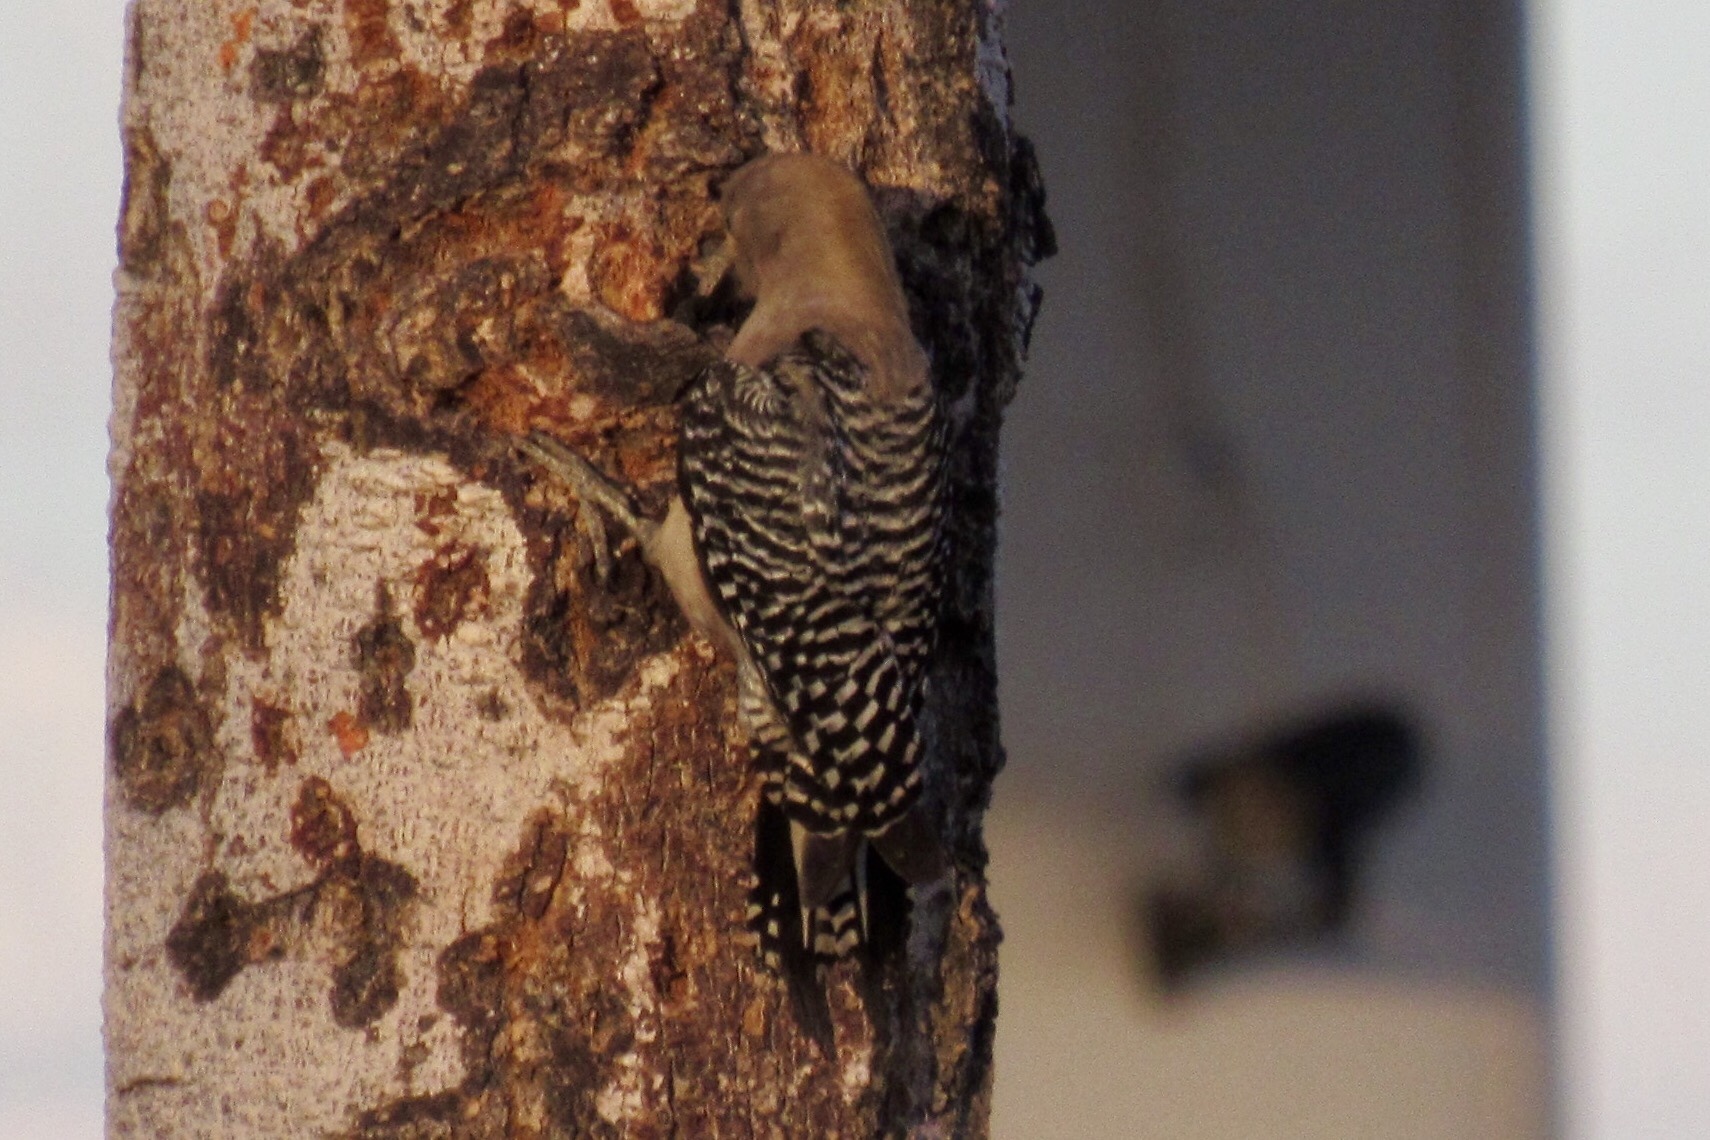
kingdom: Animalia
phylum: Chordata
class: Aves
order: Piciformes
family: Picidae
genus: Melanerpes
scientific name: Melanerpes uropygialis
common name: Gila woodpecker
